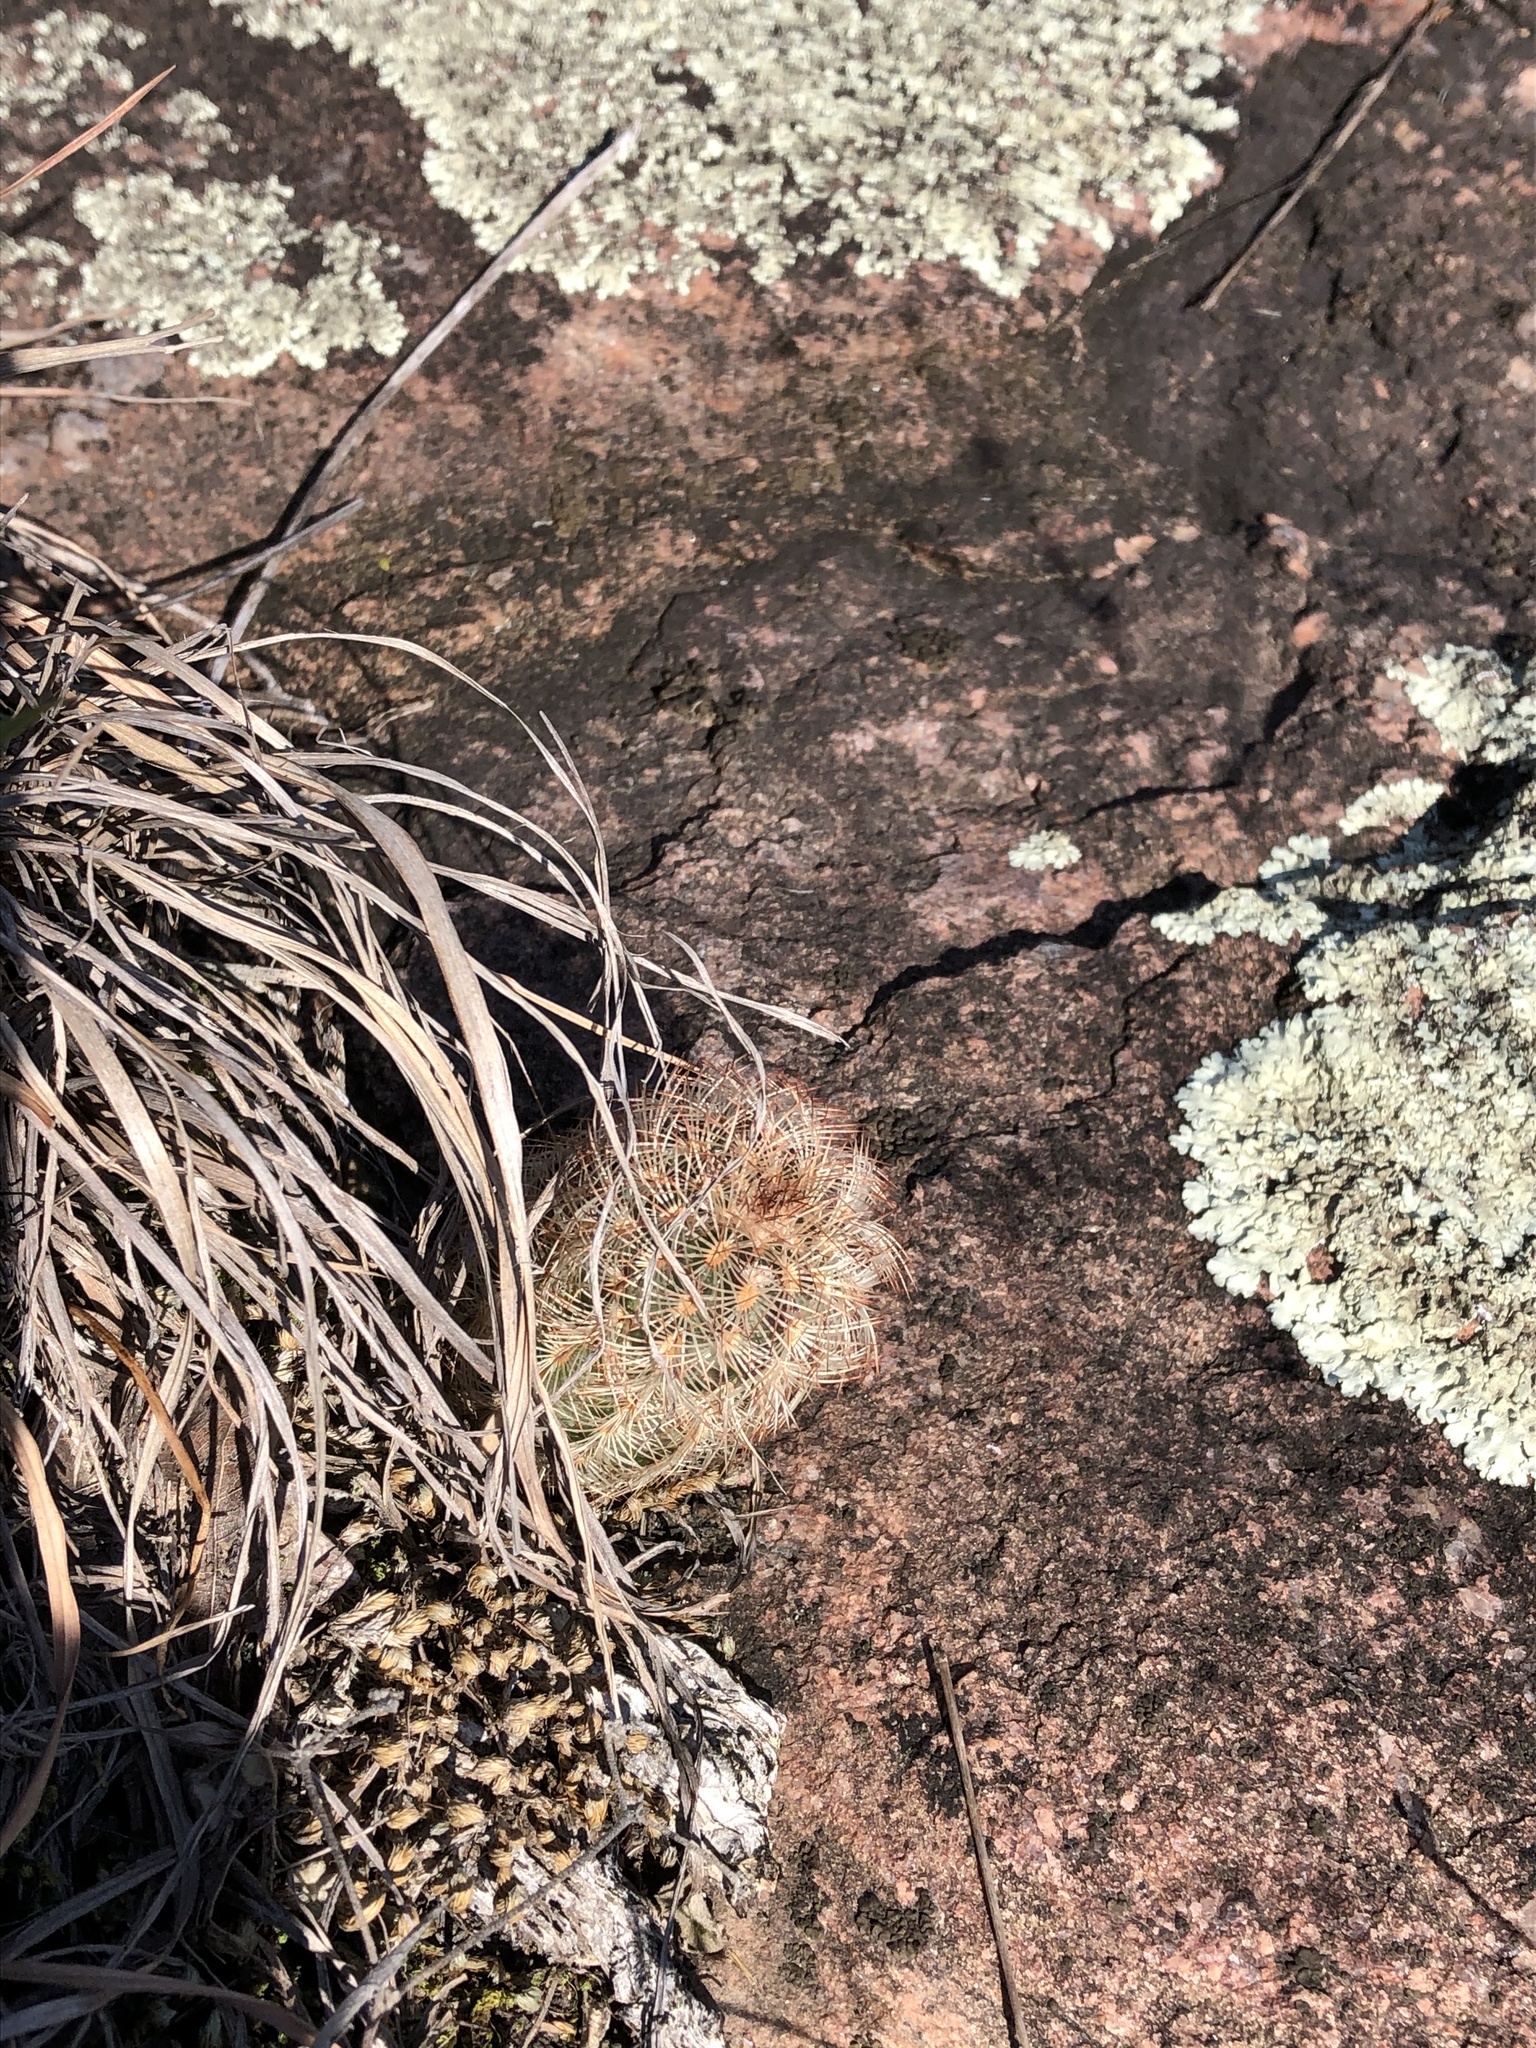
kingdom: Plantae
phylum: Tracheophyta
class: Magnoliopsida
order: Caryophyllales
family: Cactaceae
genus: Echinocereus
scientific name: Echinocereus reichenbachii
